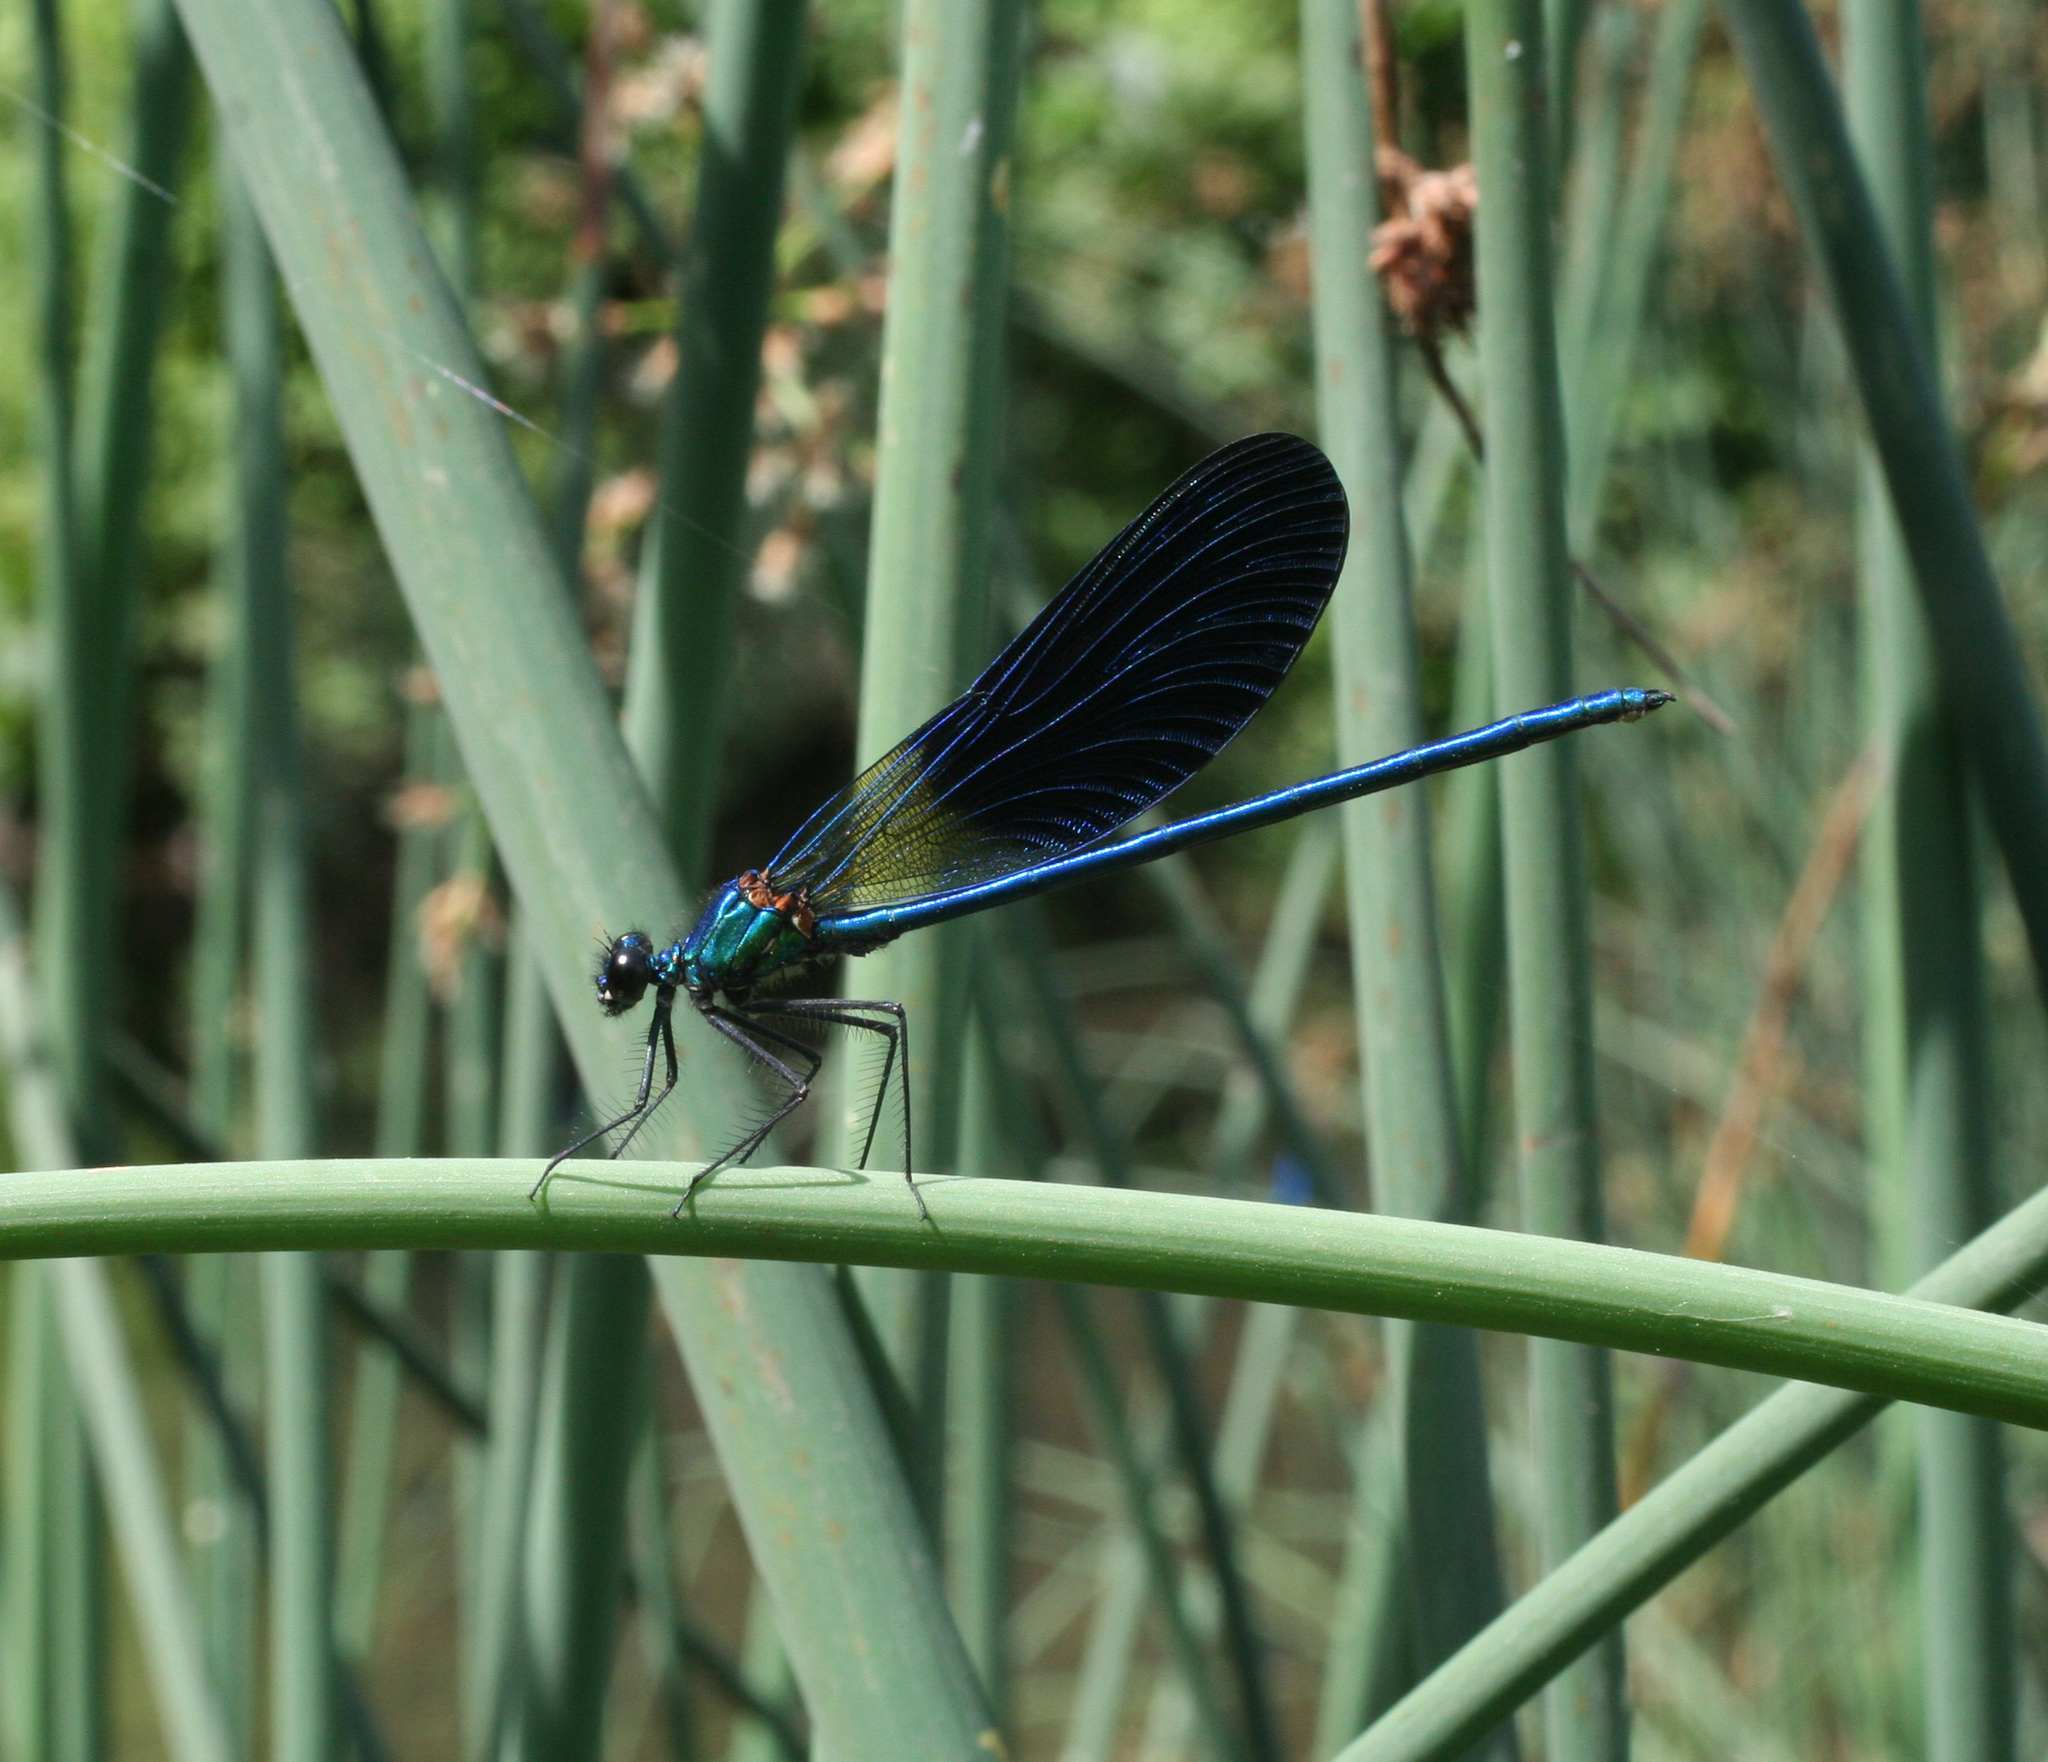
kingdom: Animalia
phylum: Arthropoda
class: Insecta
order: Odonata
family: Calopterygidae
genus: Calopteryx
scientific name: Calopteryx splendens
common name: Banded demoiselle
